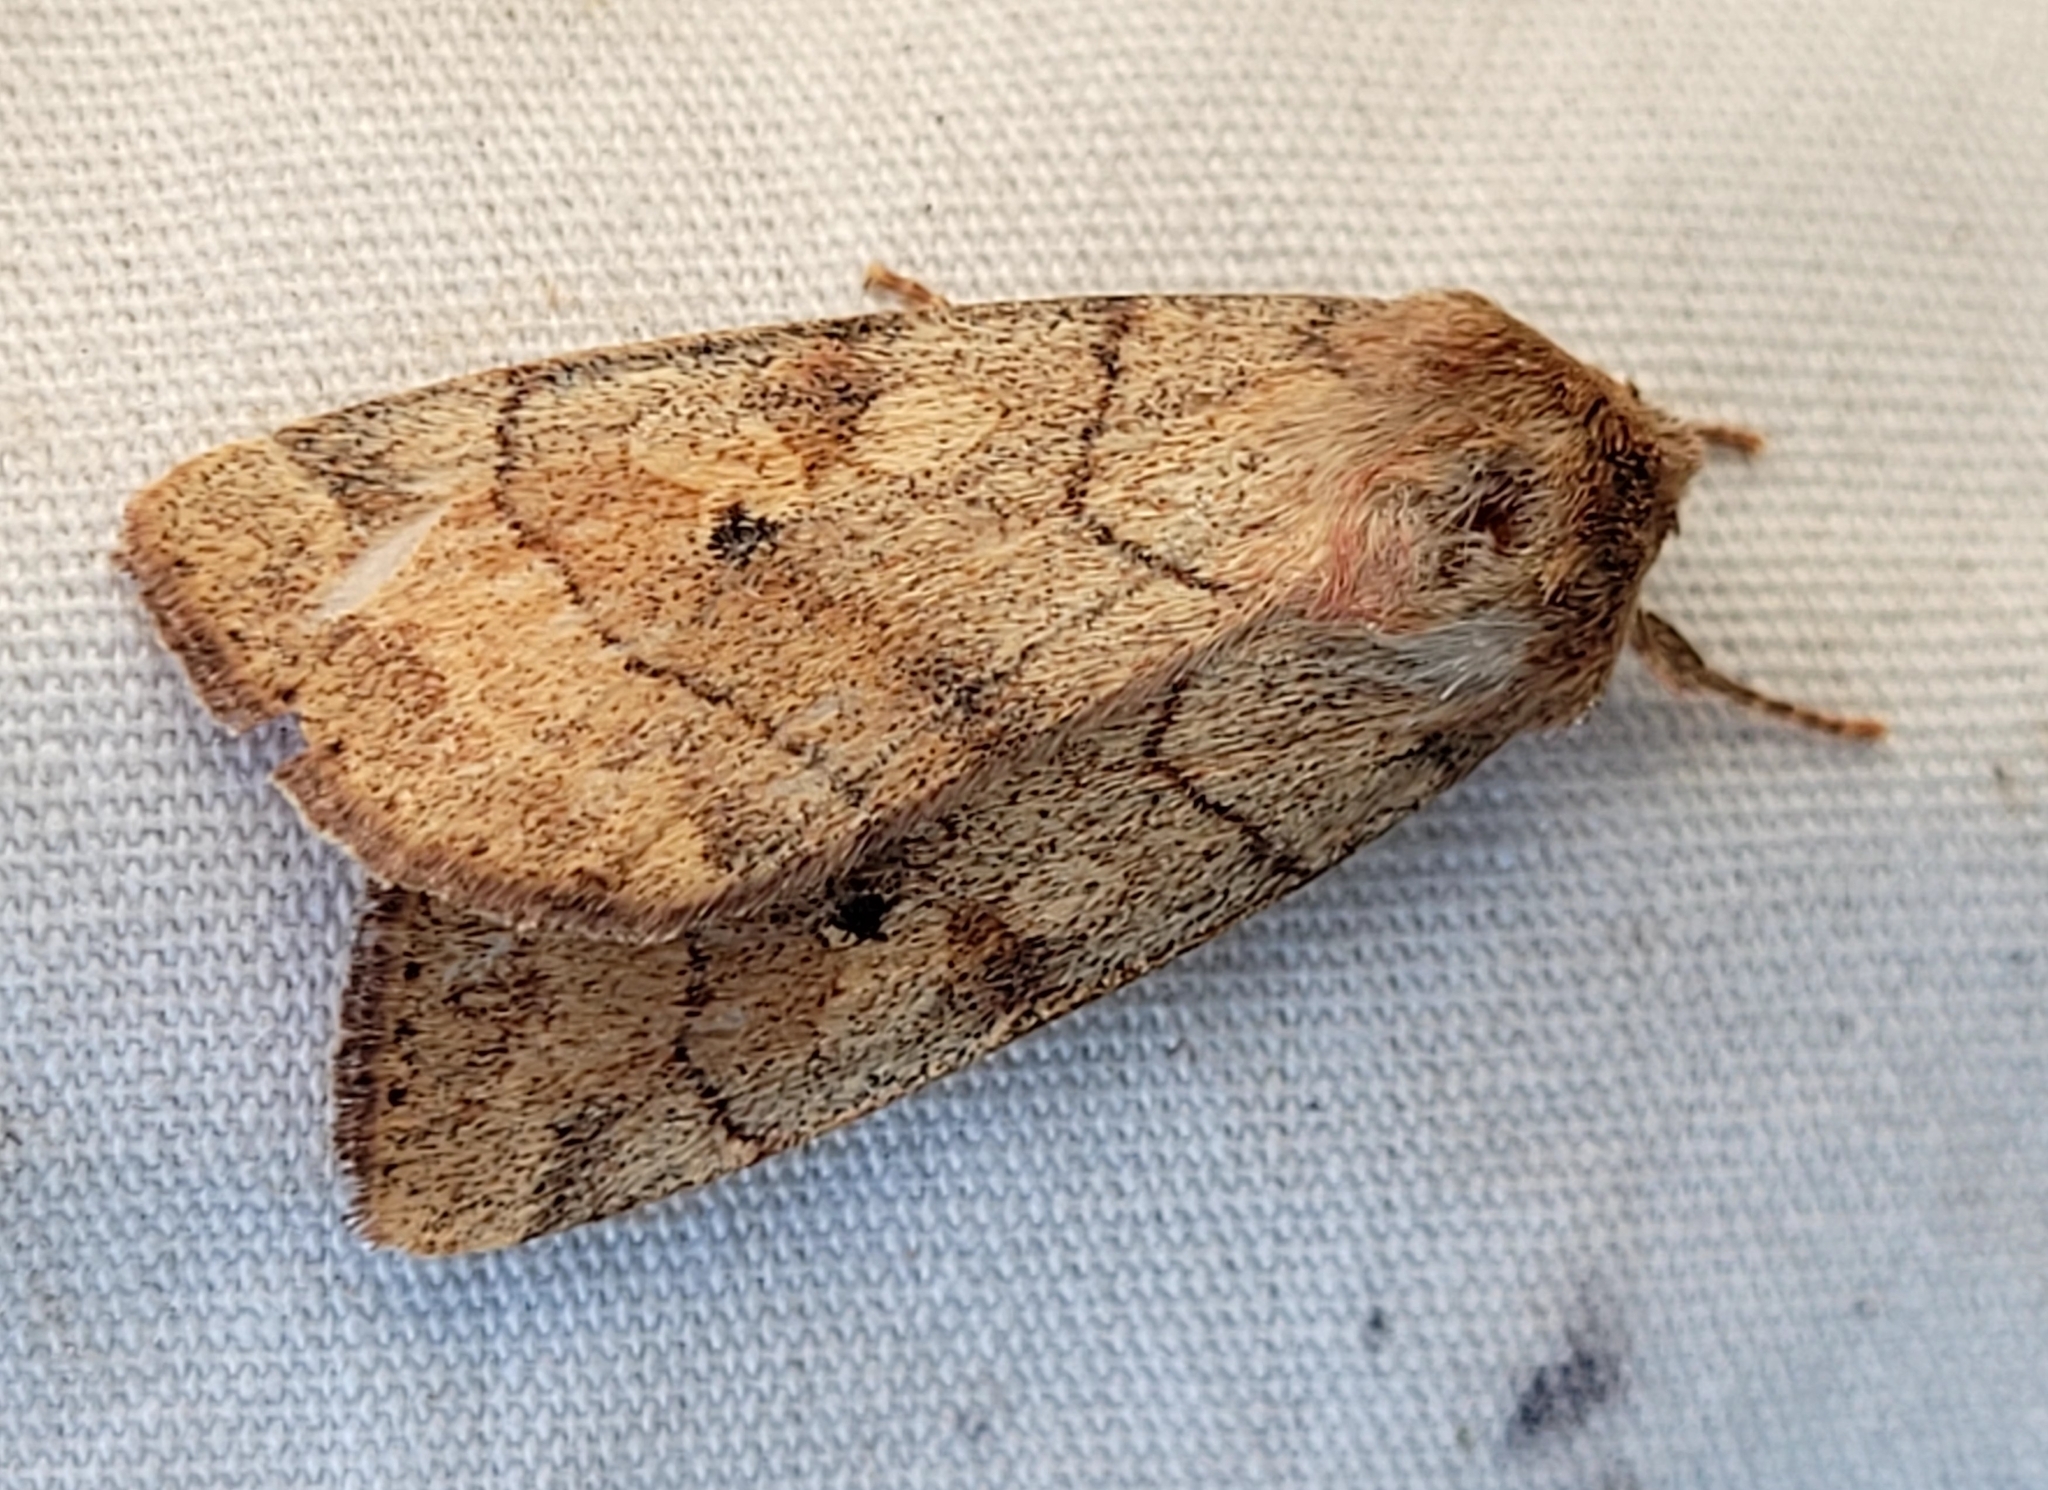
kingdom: Animalia
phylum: Arthropoda
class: Insecta
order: Lepidoptera
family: Noctuidae
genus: Enargia
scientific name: Enargia infumata
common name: Smoked sallow
